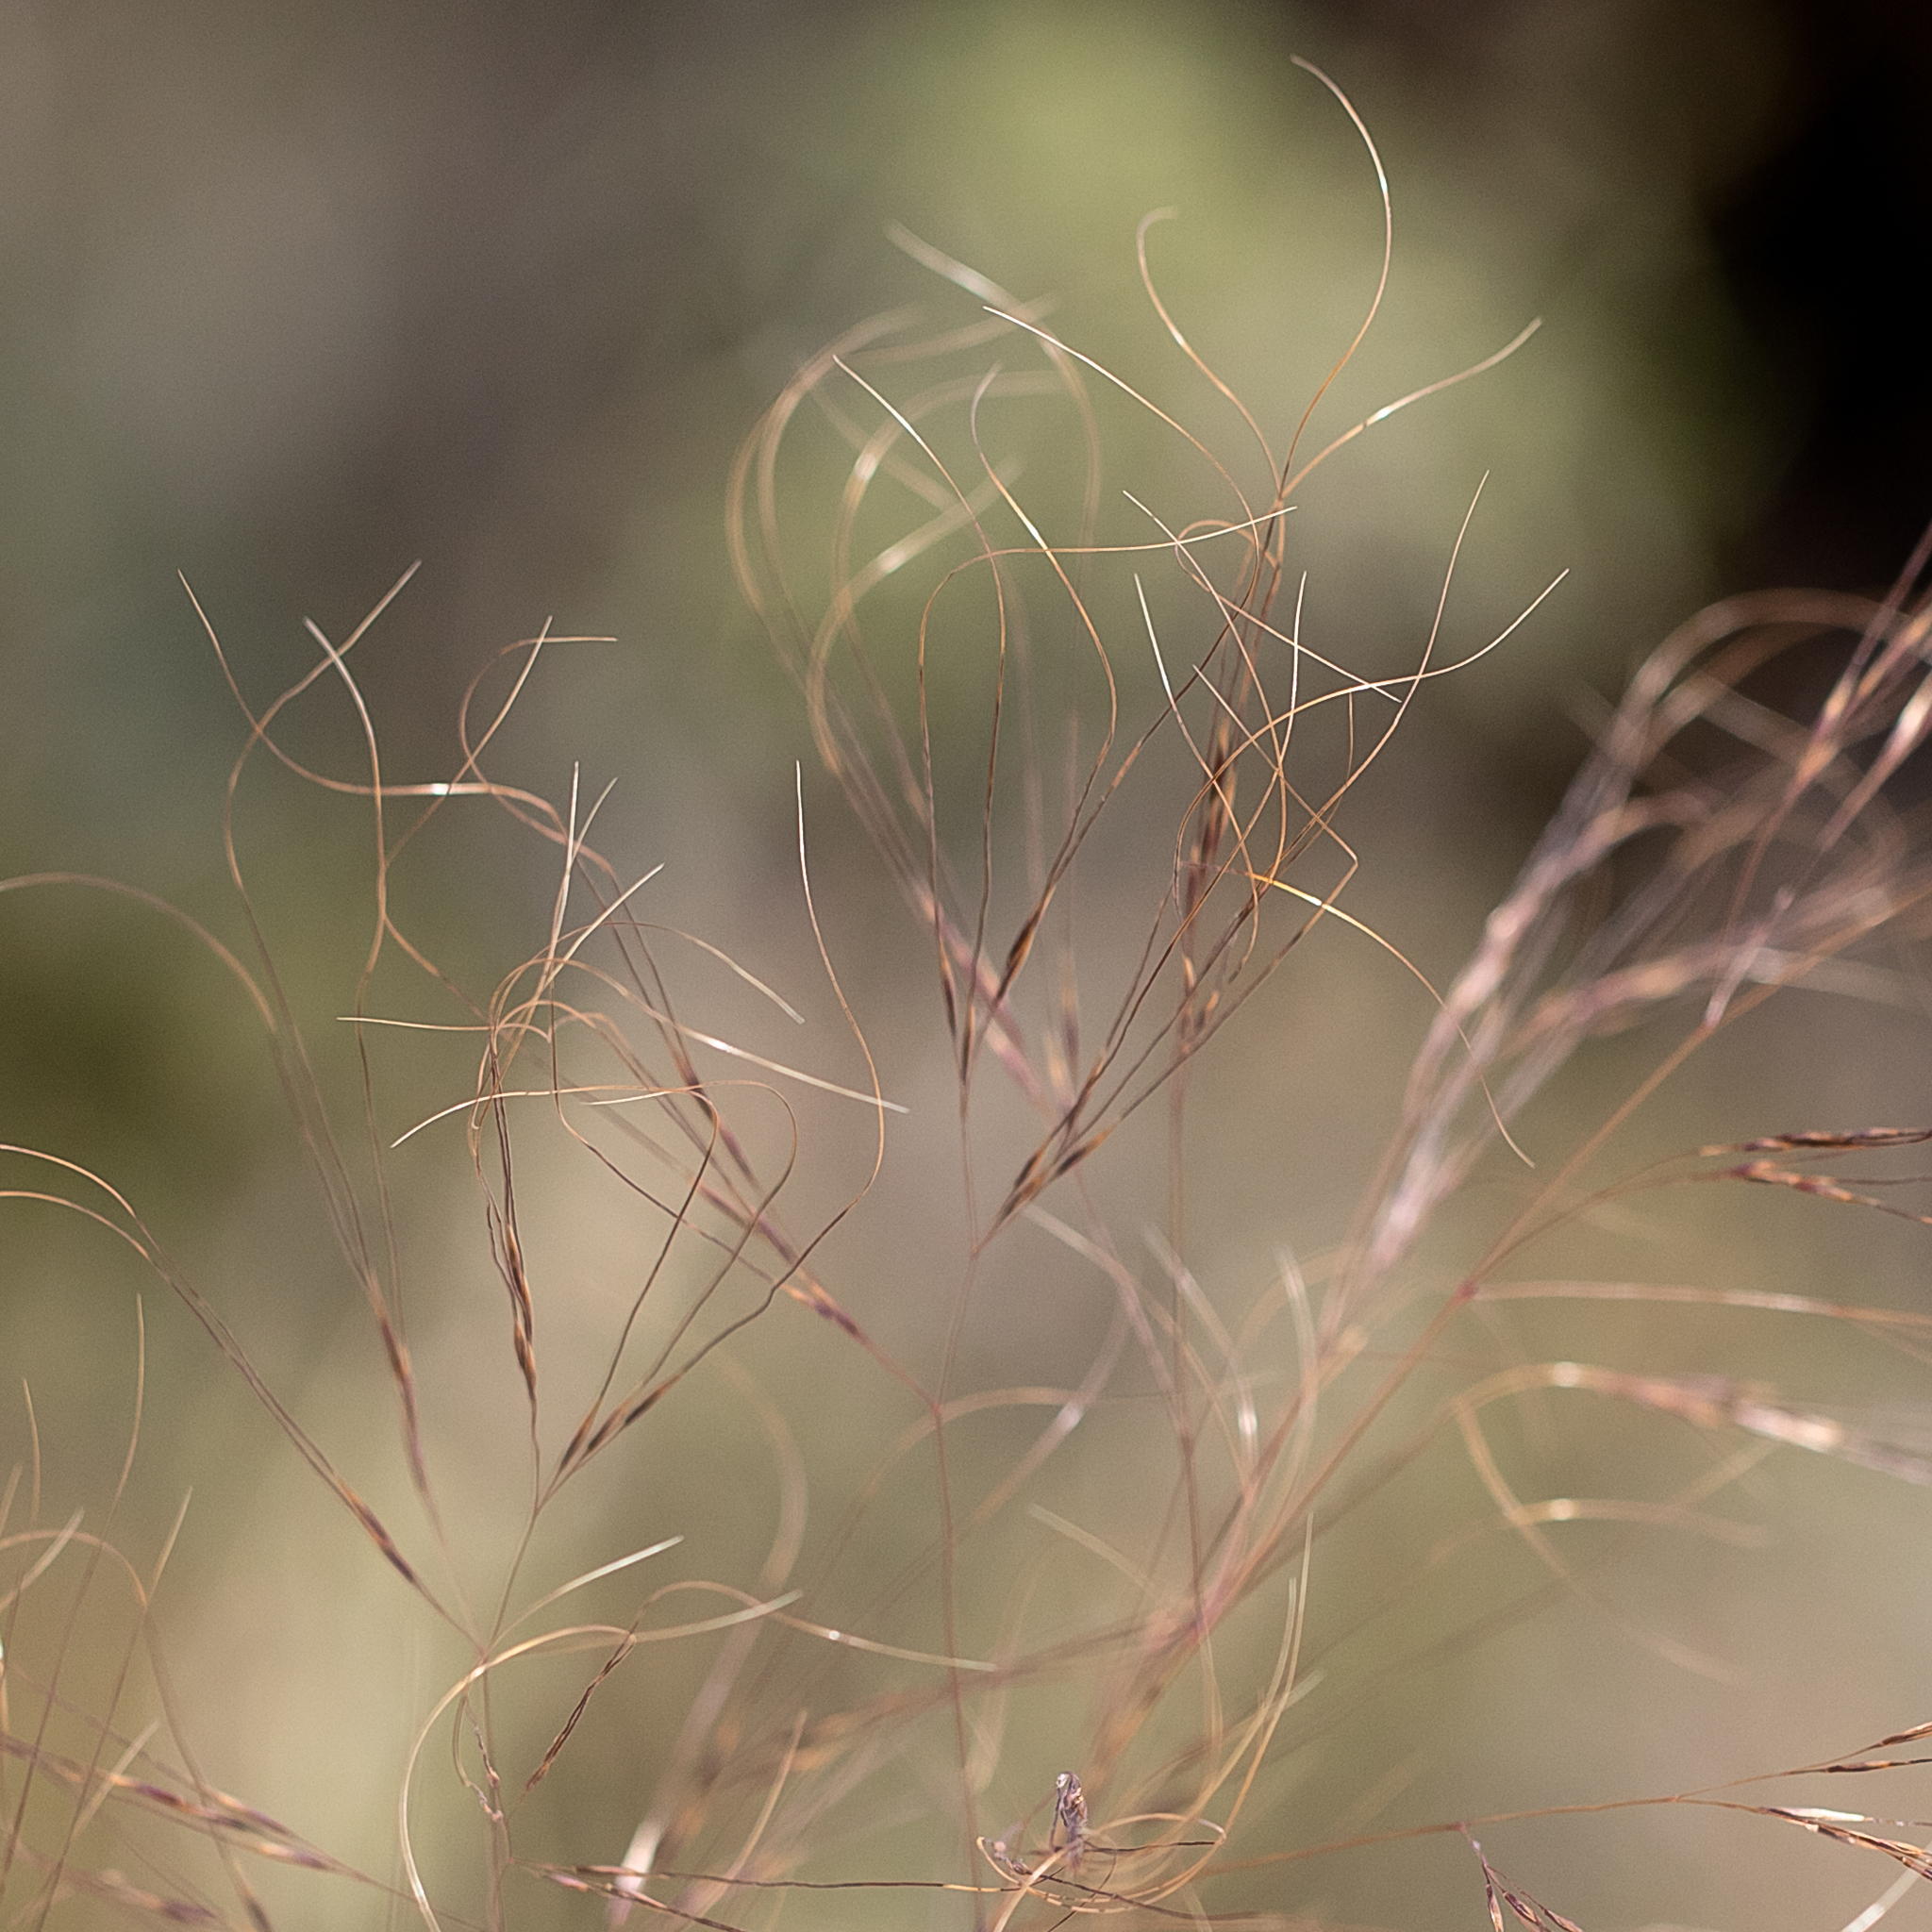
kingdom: Plantae
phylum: Tracheophyta
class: Liliopsida
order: Poales
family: Poaceae
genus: Austrostipa
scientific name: Austrostipa acrociliata
